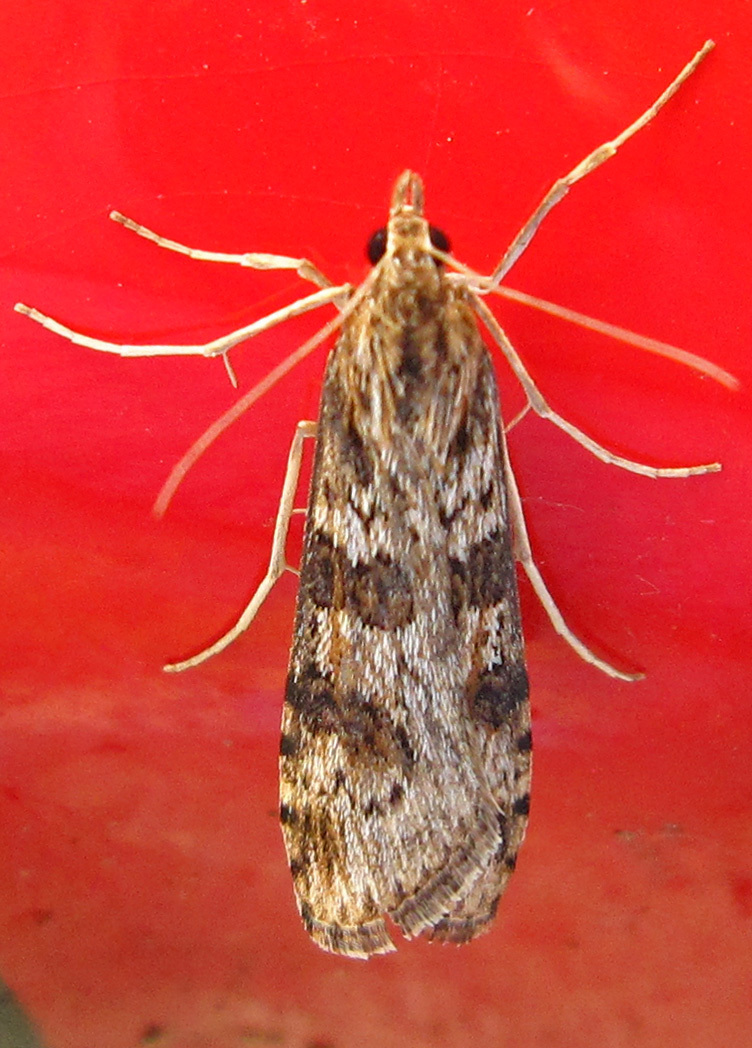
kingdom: Animalia
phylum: Arthropoda
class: Insecta
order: Lepidoptera
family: Crambidae
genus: Nomophila
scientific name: Nomophila nearctica
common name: American rush veneer
